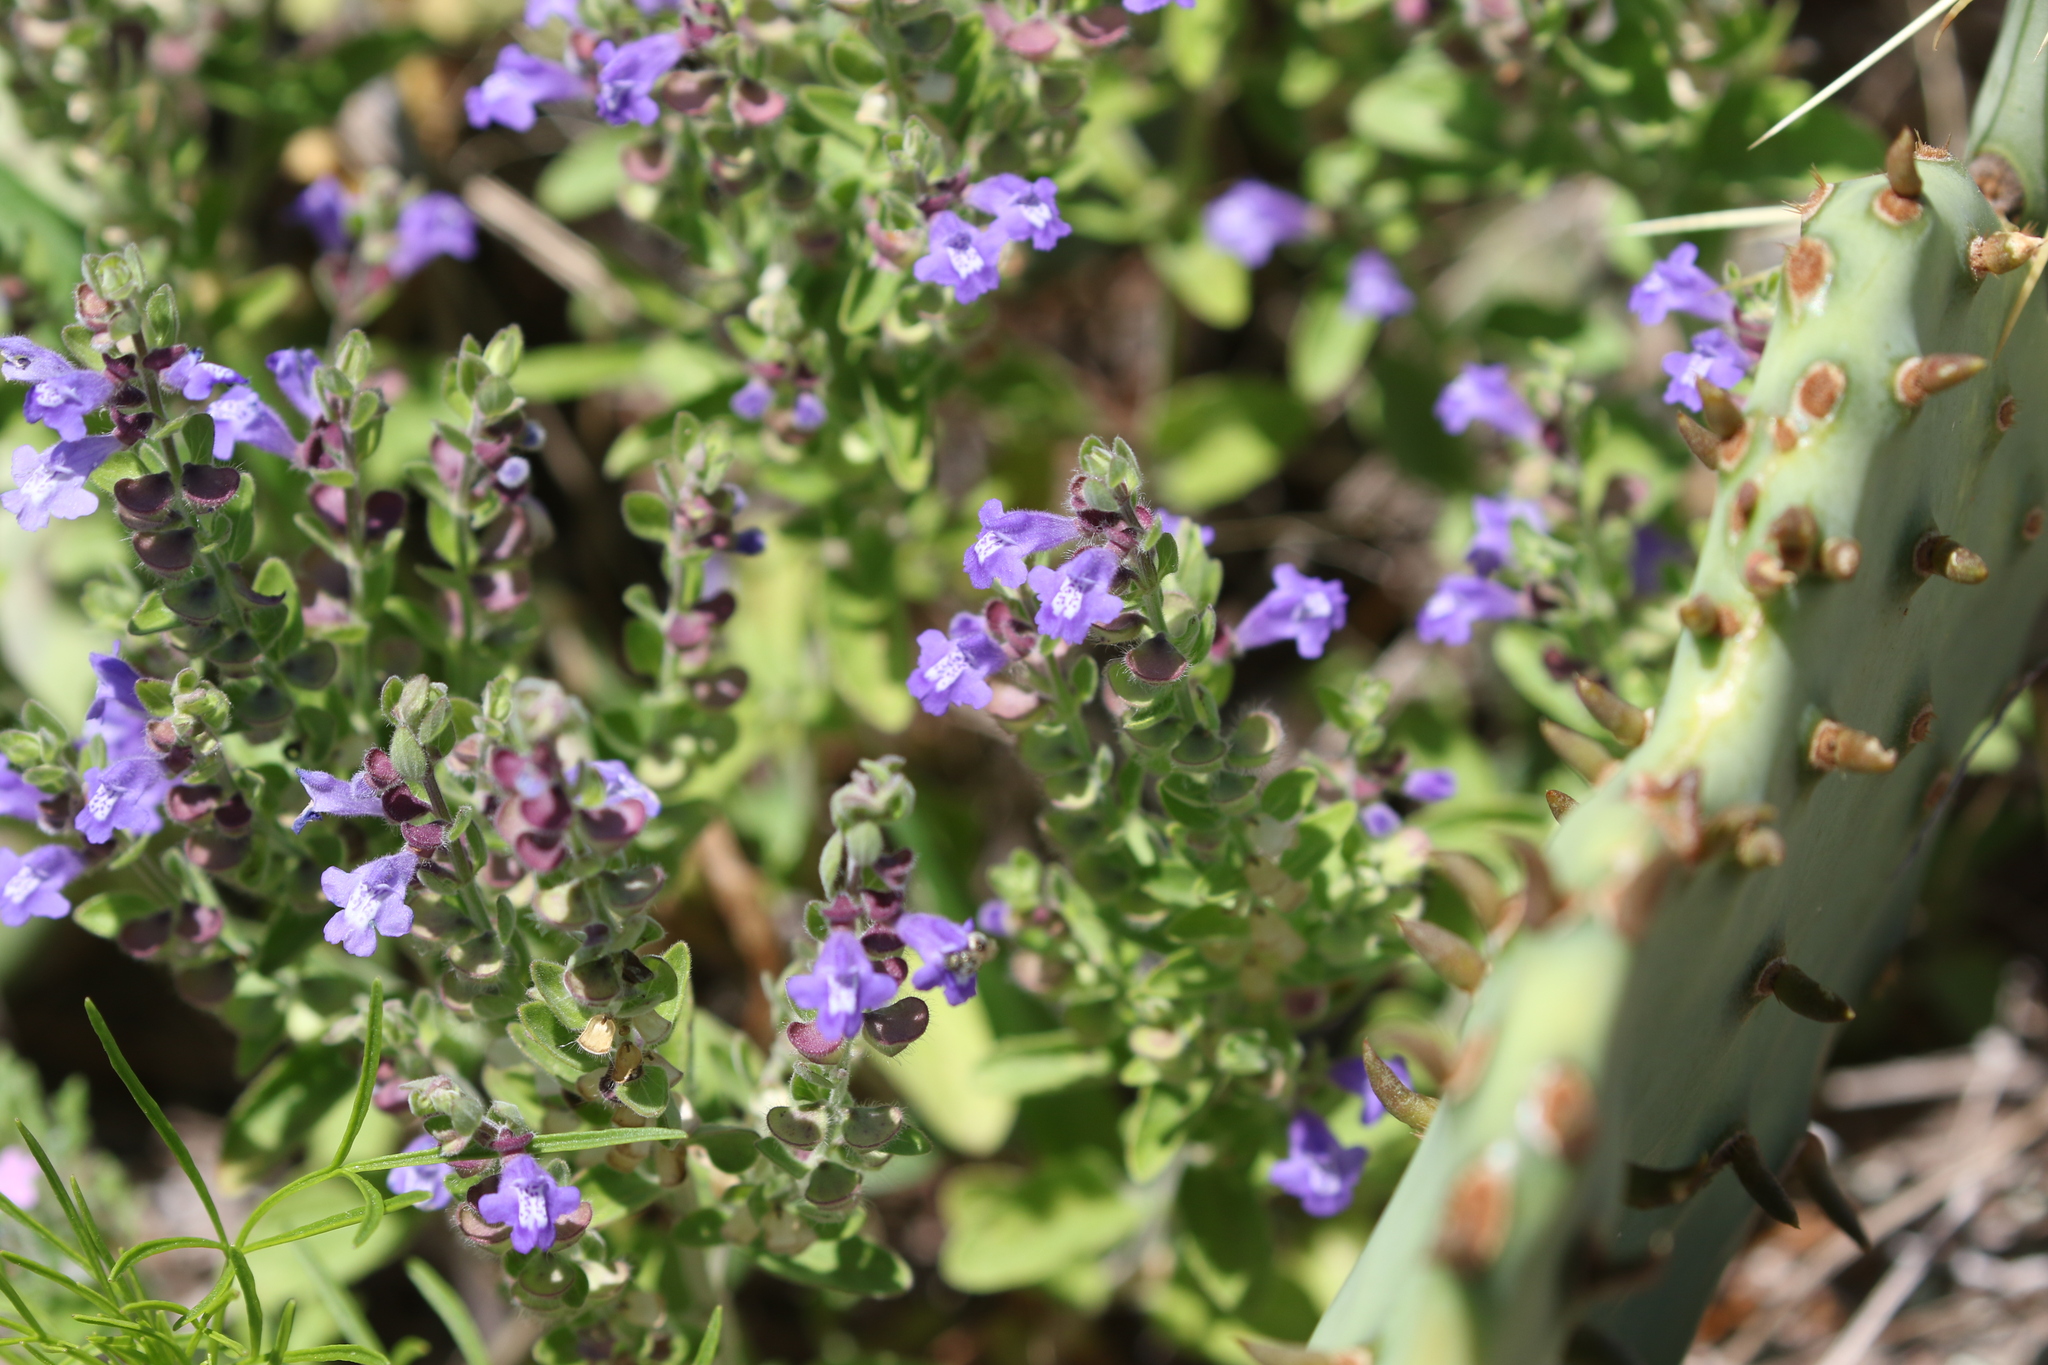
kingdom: Plantae
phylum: Tracheophyta
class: Magnoliopsida
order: Lamiales
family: Lamiaceae
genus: Scutellaria
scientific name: Scutellaria drummondii
